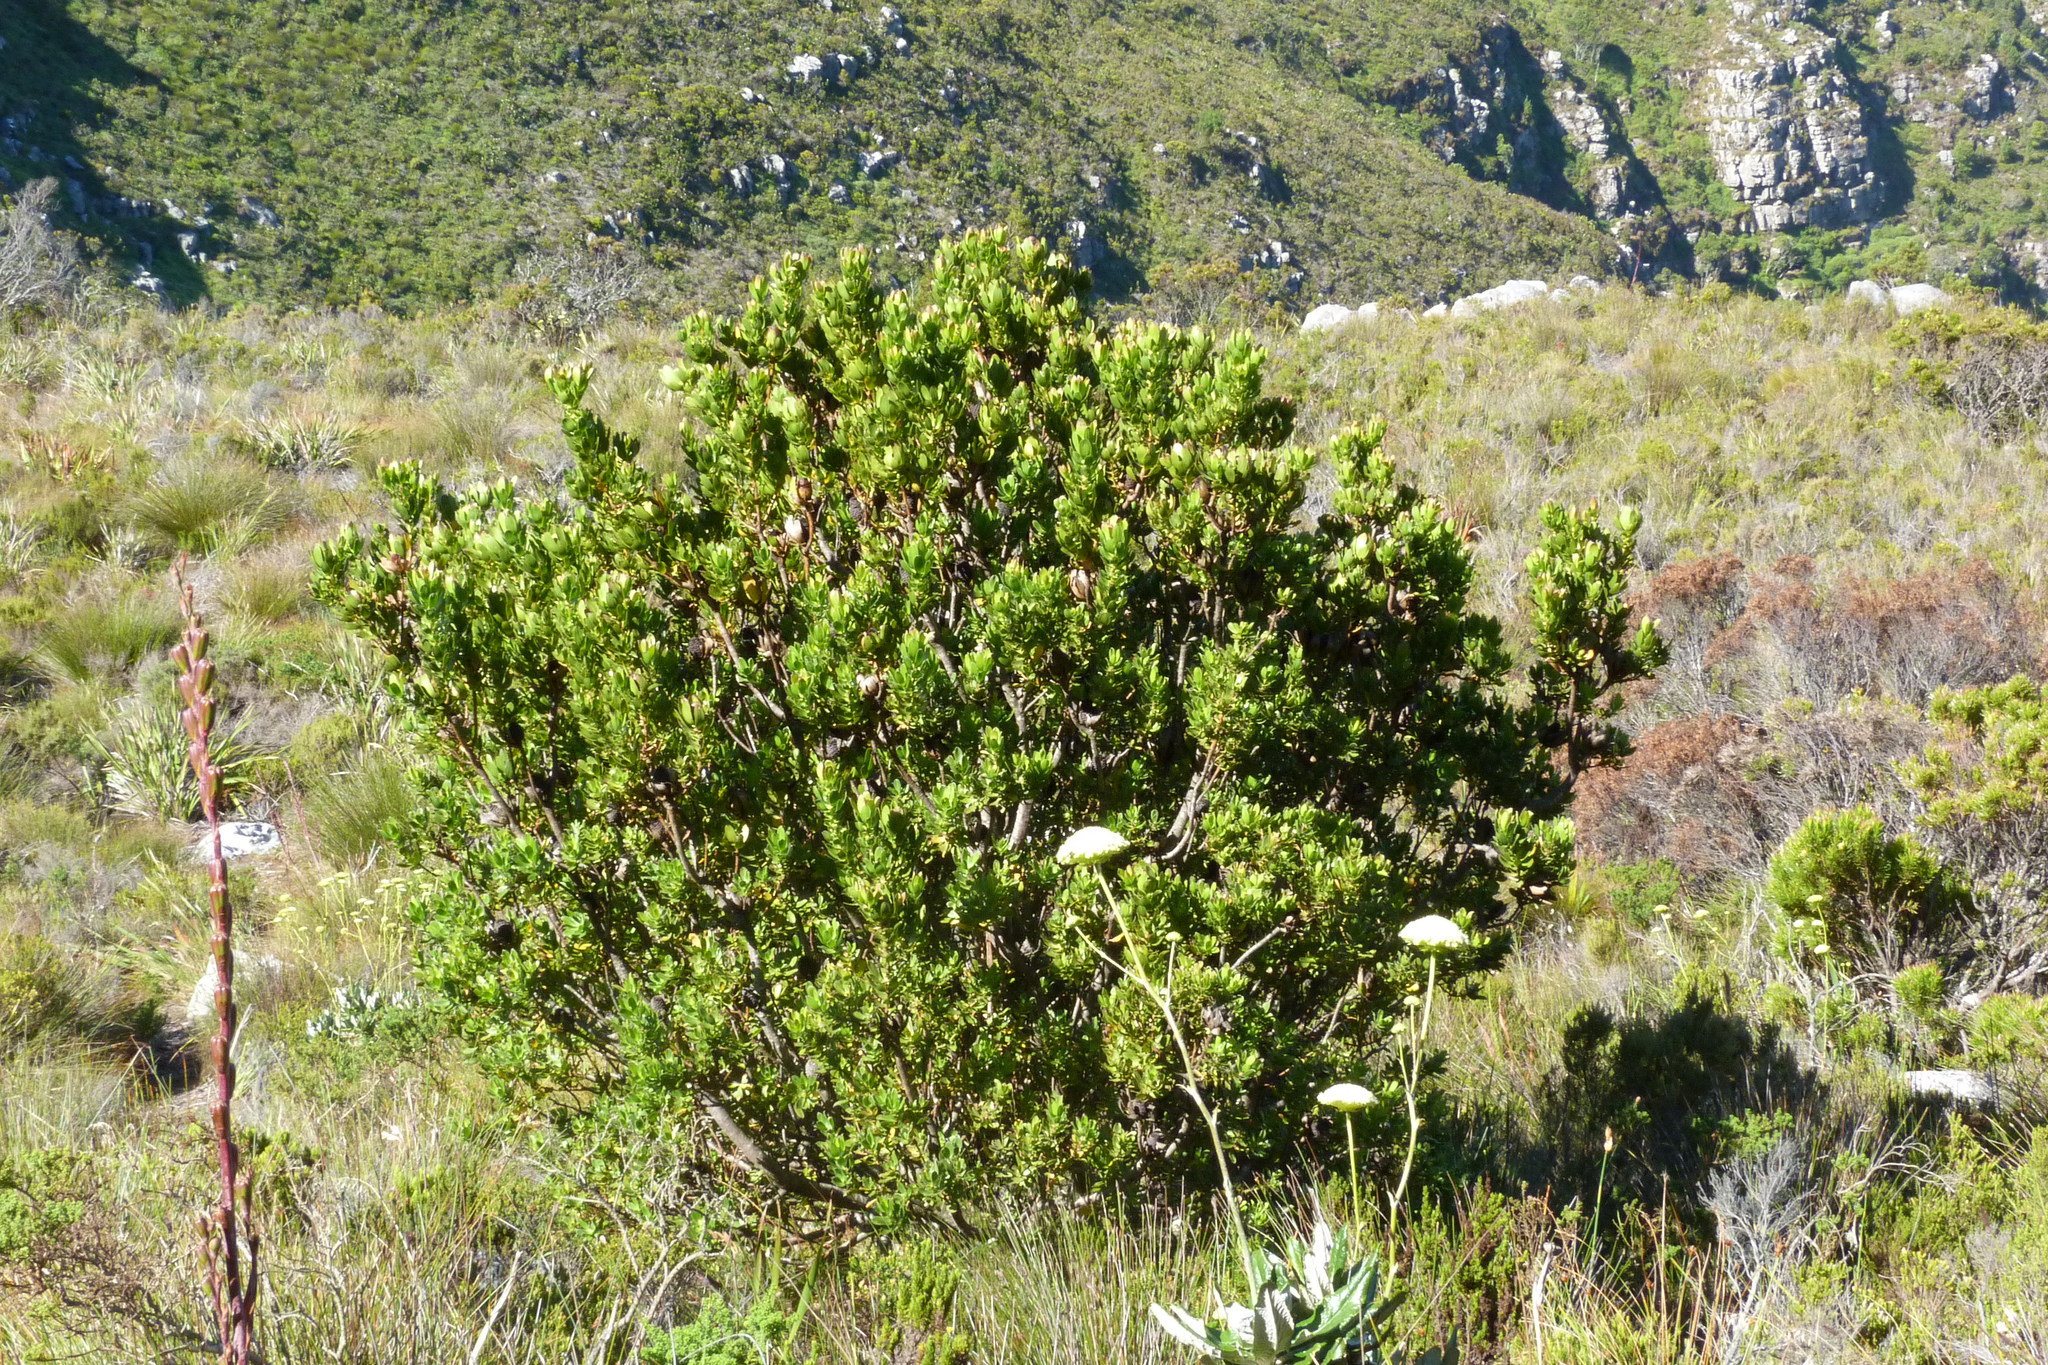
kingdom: Plantae
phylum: Tracheophyta
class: Magnoliopsida
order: Proteales
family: Proteaceae
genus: Leucadendron
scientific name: Leucadendron strobilinum
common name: Mountain rose
